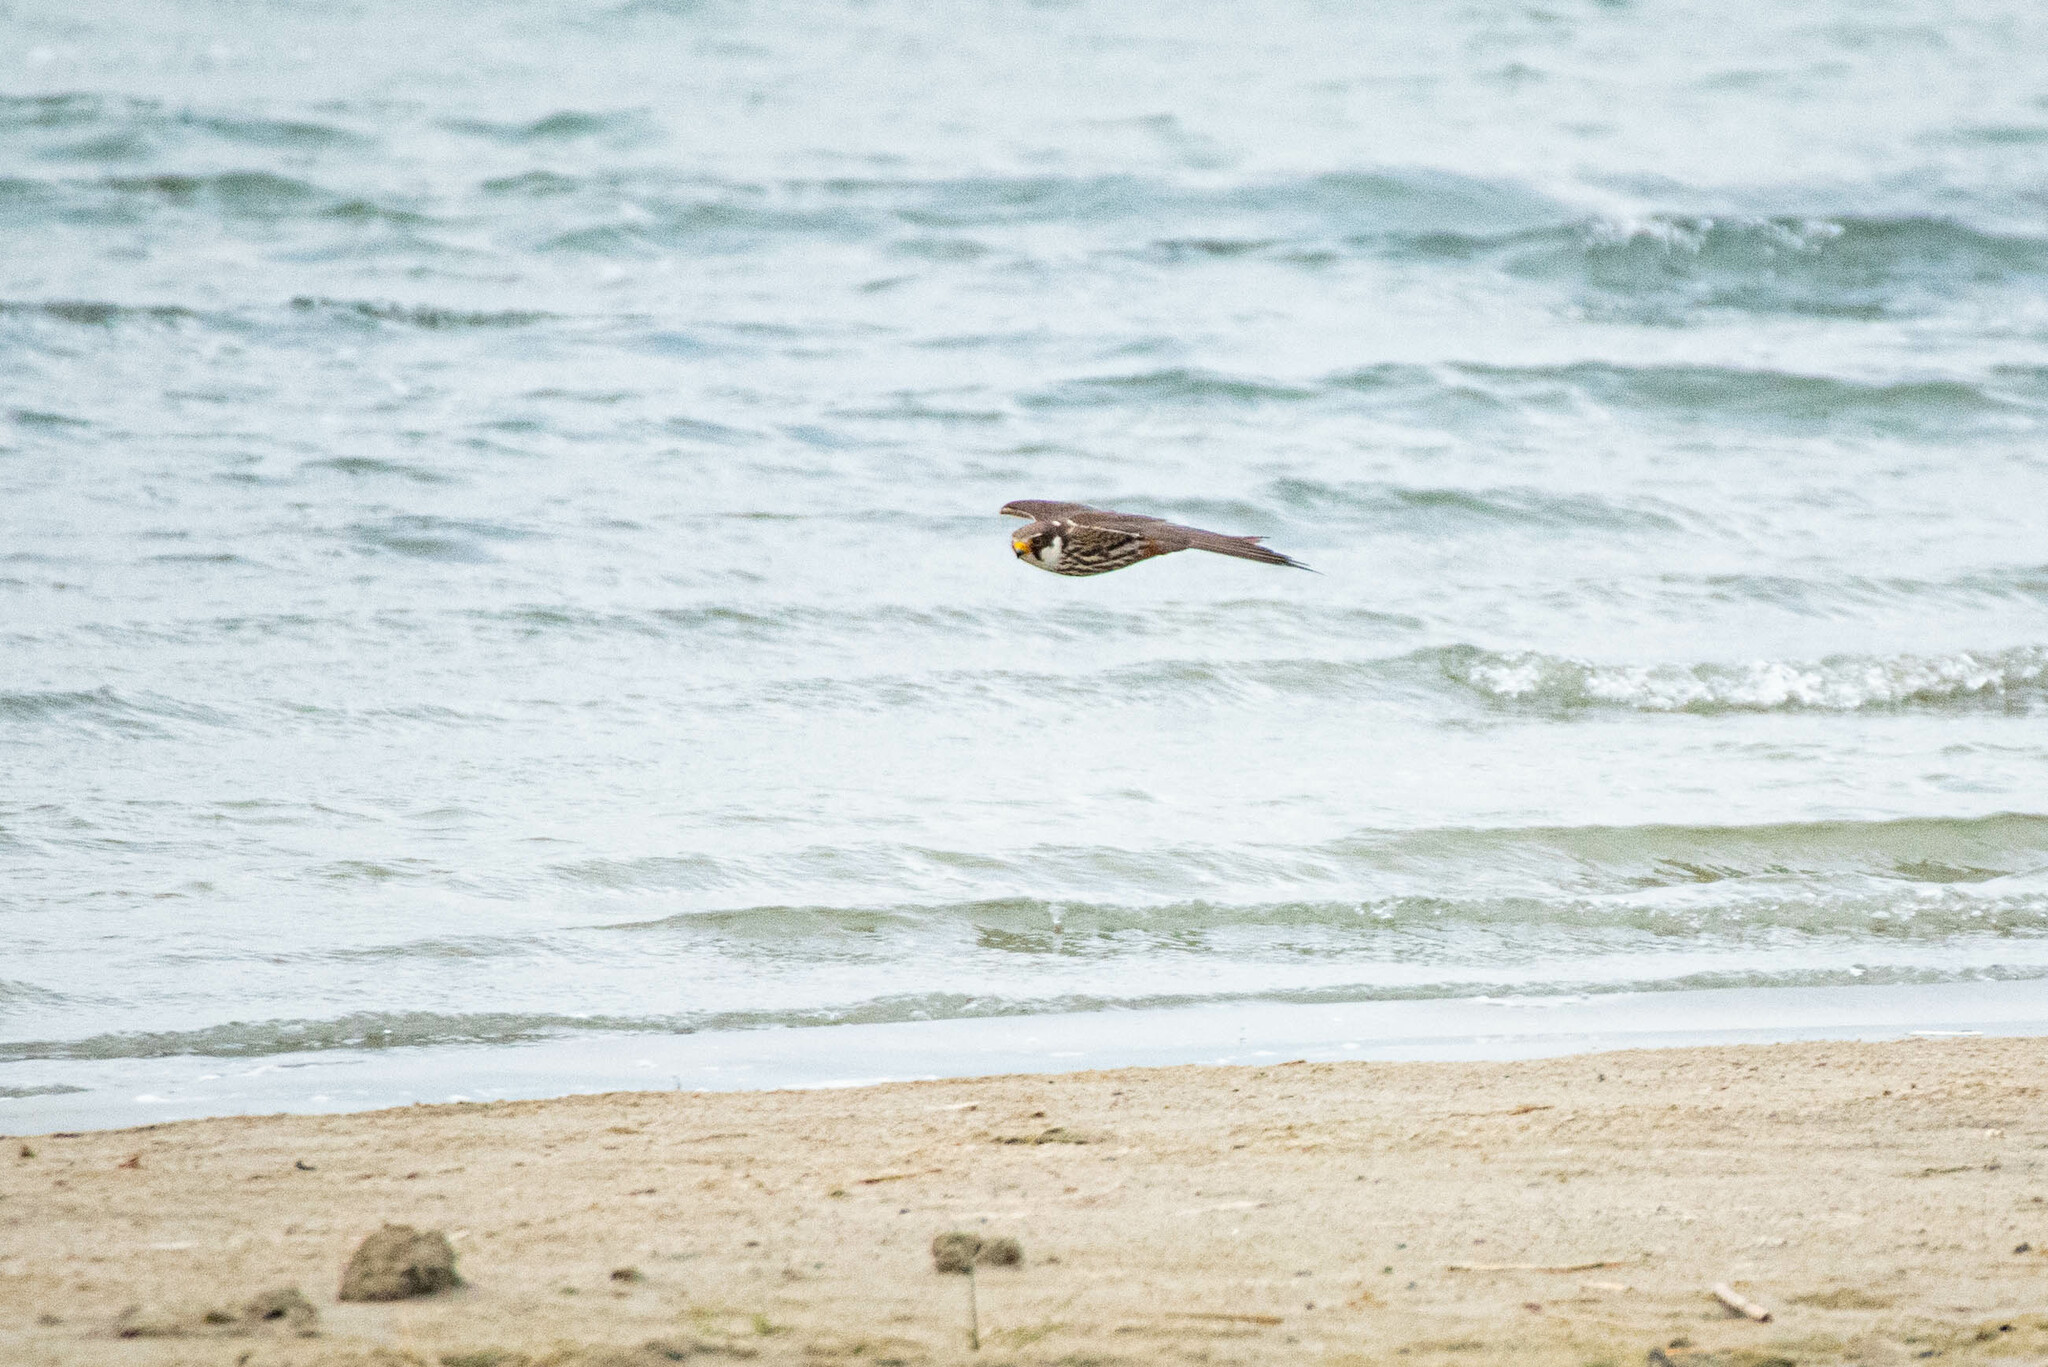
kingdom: Animalia
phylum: Chordata
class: Aves
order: Falconiformes
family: Falconidae
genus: Falco
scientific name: Falco subbuteo
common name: Eurasian hobby
